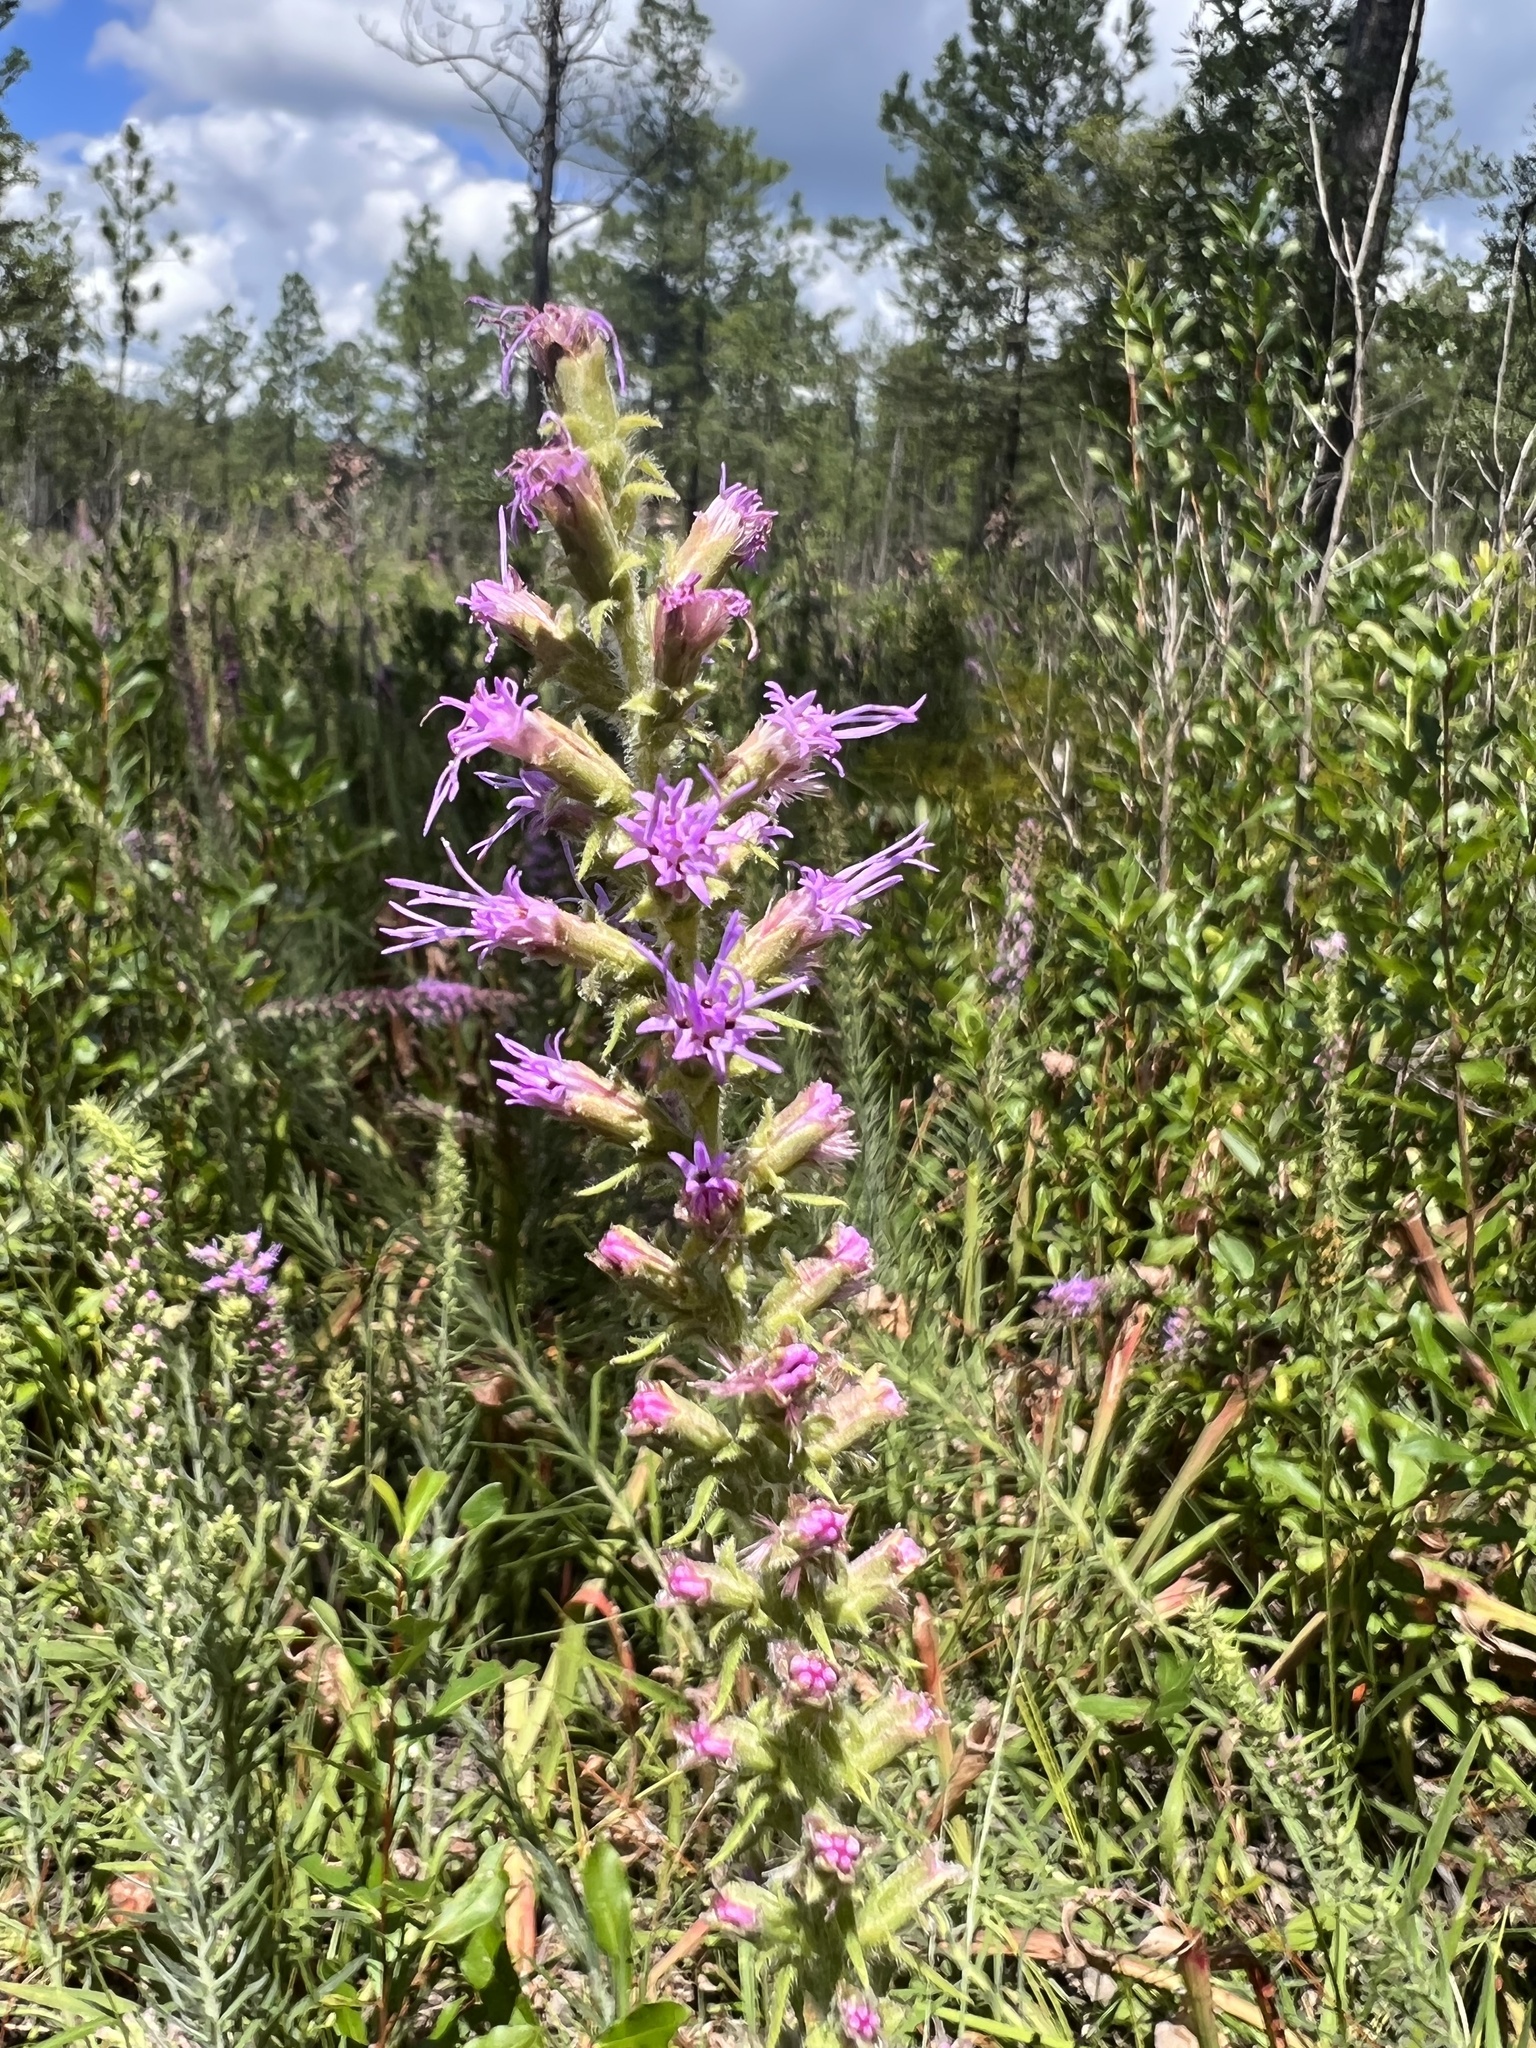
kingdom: Plantae
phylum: Tracheophyta
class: Magnoliopsida
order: Asterales
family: Asteraceae
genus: Liatris
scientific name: Liatris pycnostachya
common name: Cattail gayfeather
